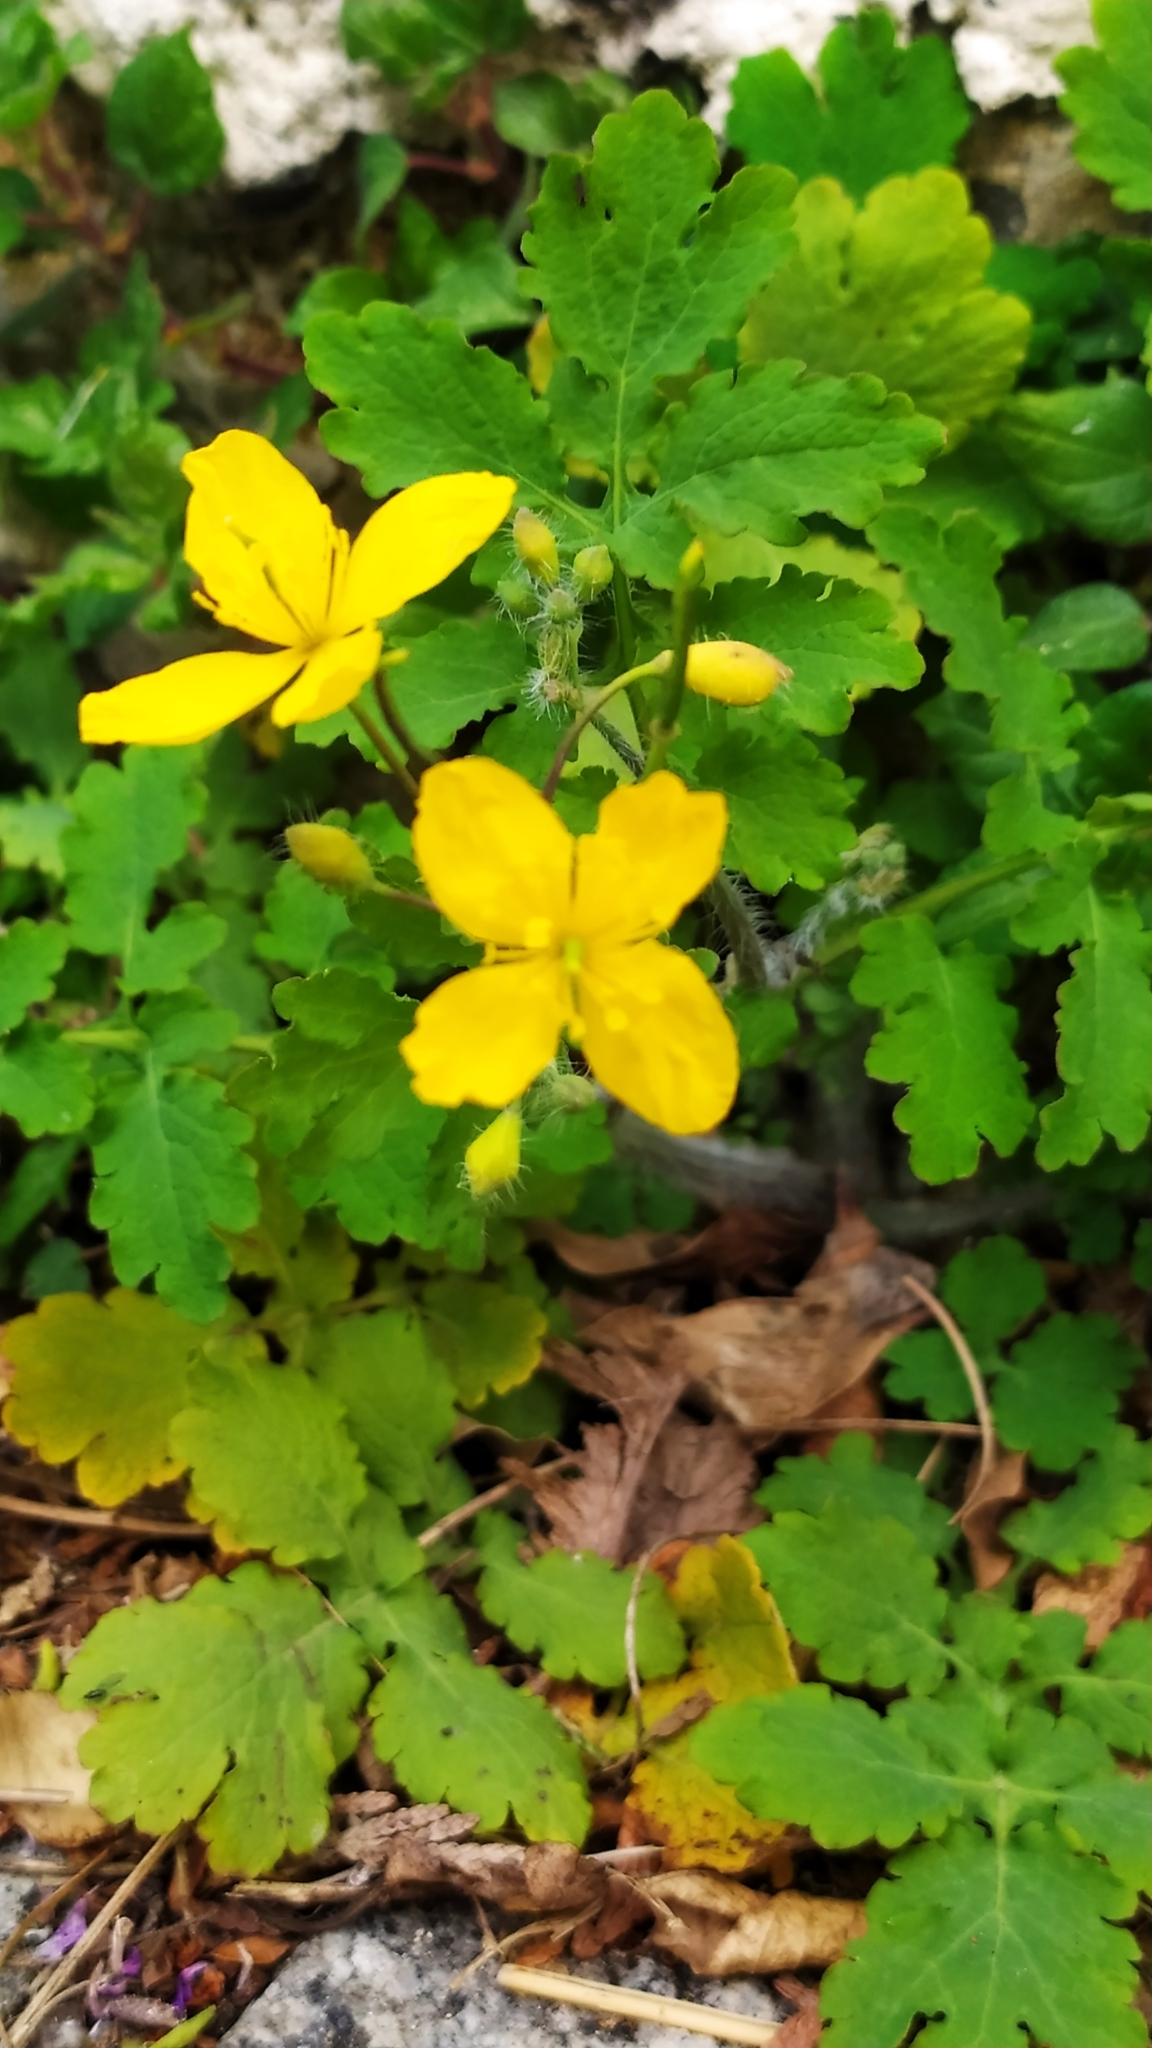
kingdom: Plantae
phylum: Tracheophyta
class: Magnoliopsida
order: Ranunculales
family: Papaveraceae
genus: Chelidonium
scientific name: Chelidonium majus
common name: Greater celandine
